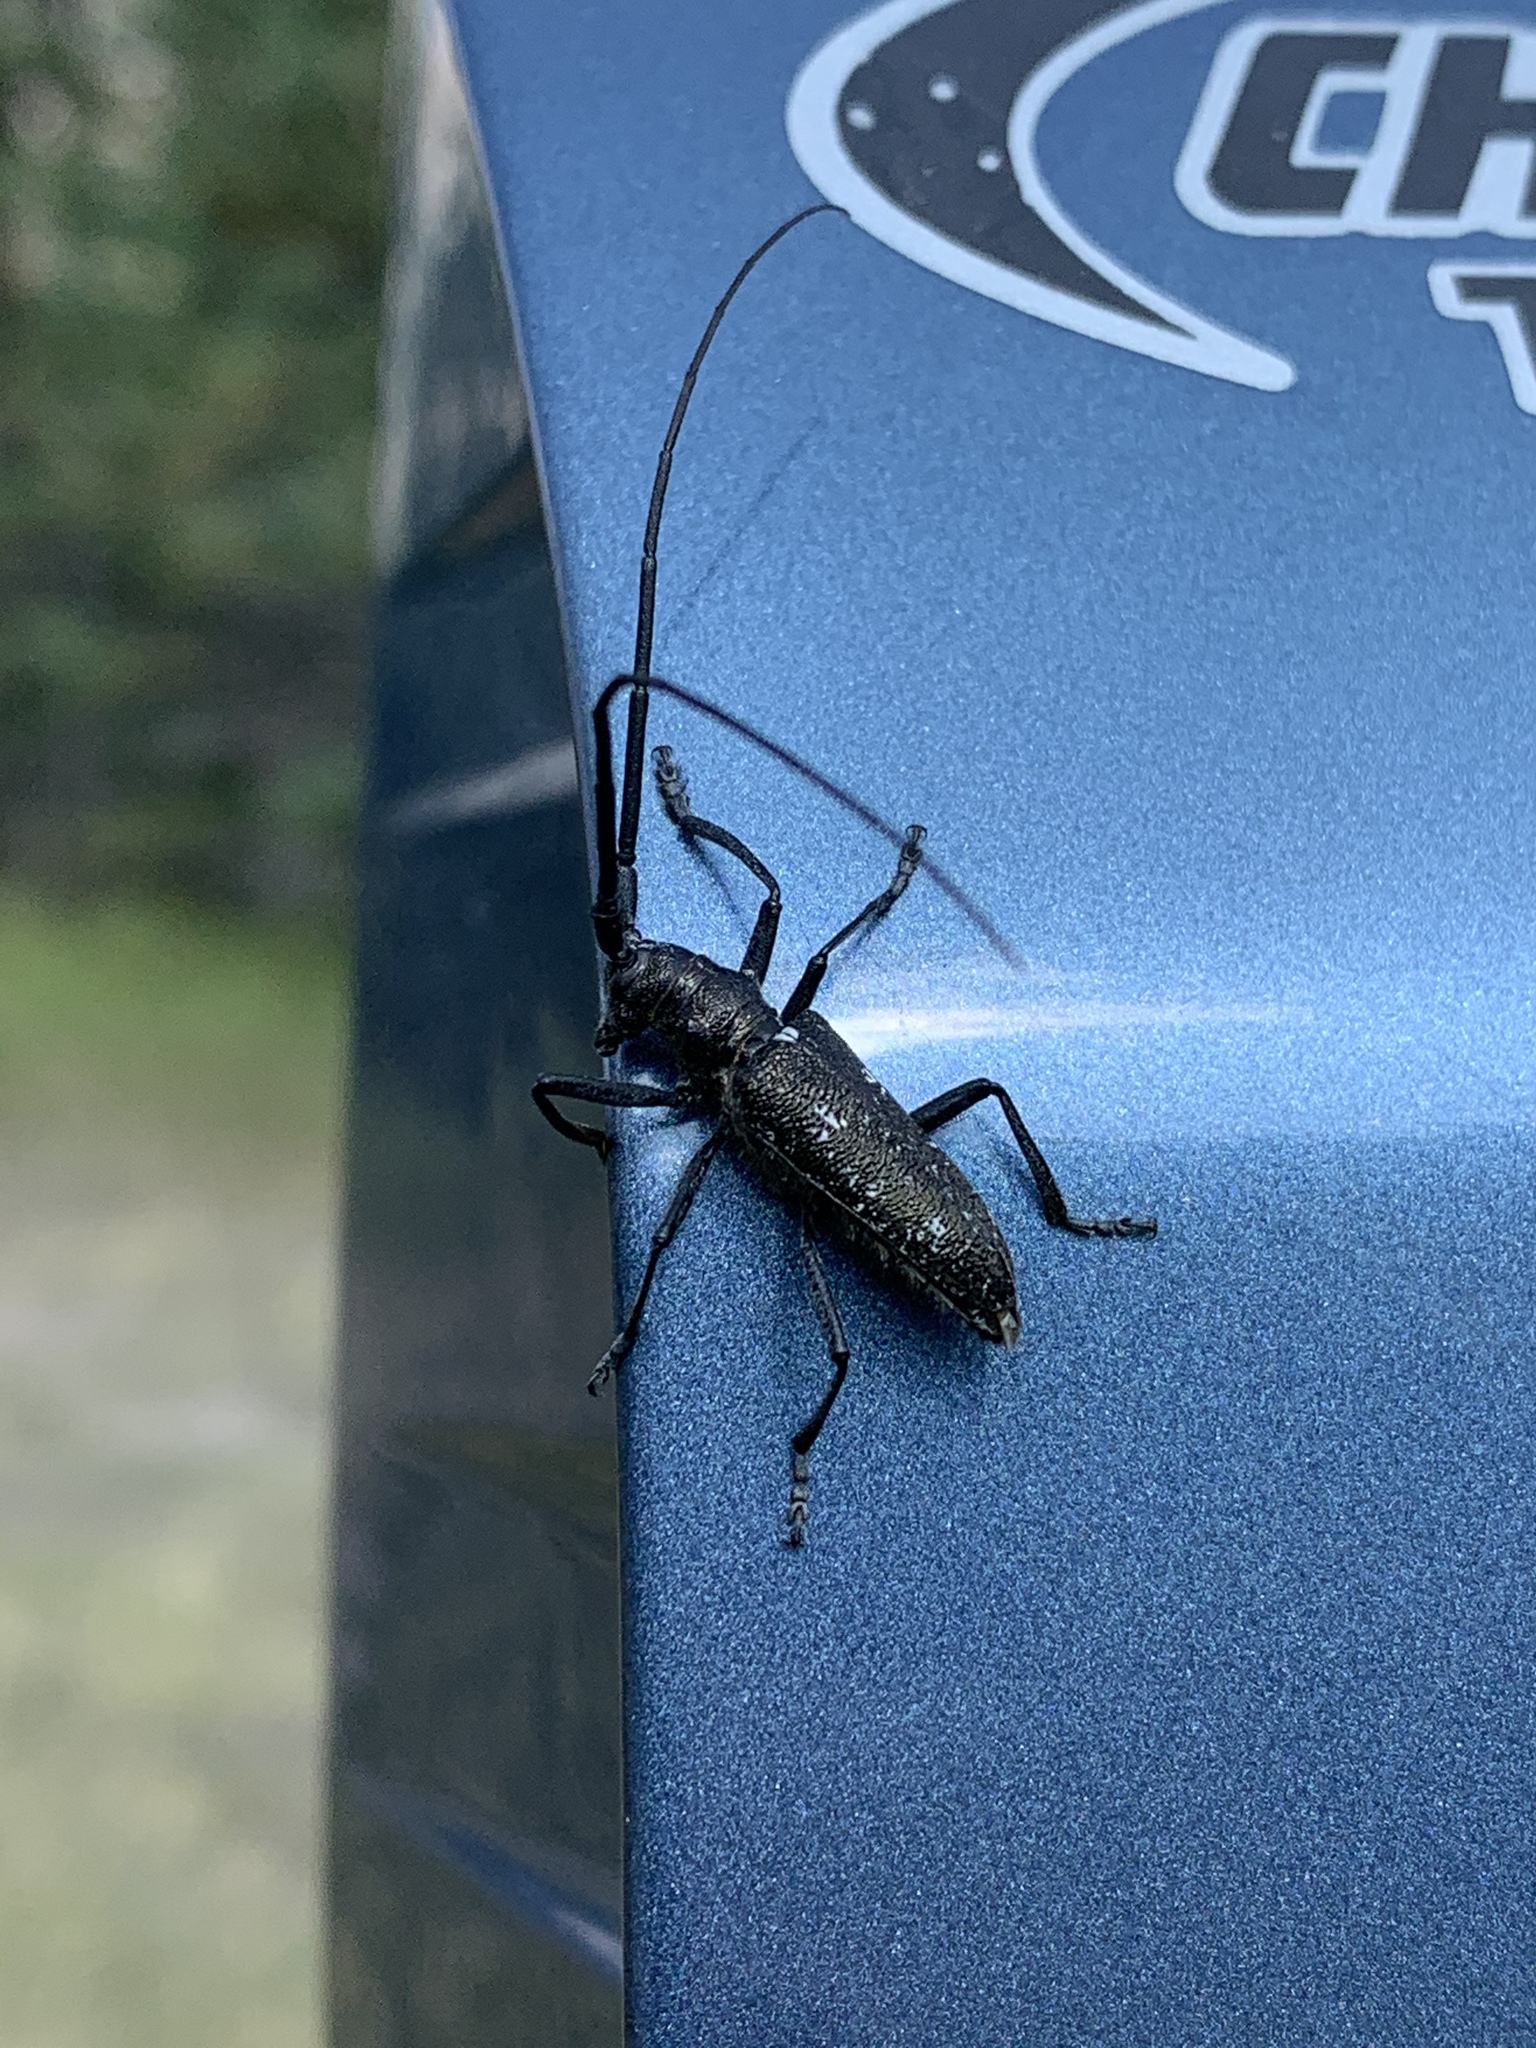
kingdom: Animalia
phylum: Arthropoda
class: Insecta
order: Coleoptera
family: Cerambycidae
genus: Monochamus
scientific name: Monochamus scutellatus
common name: White-spotted sawyer beetle
